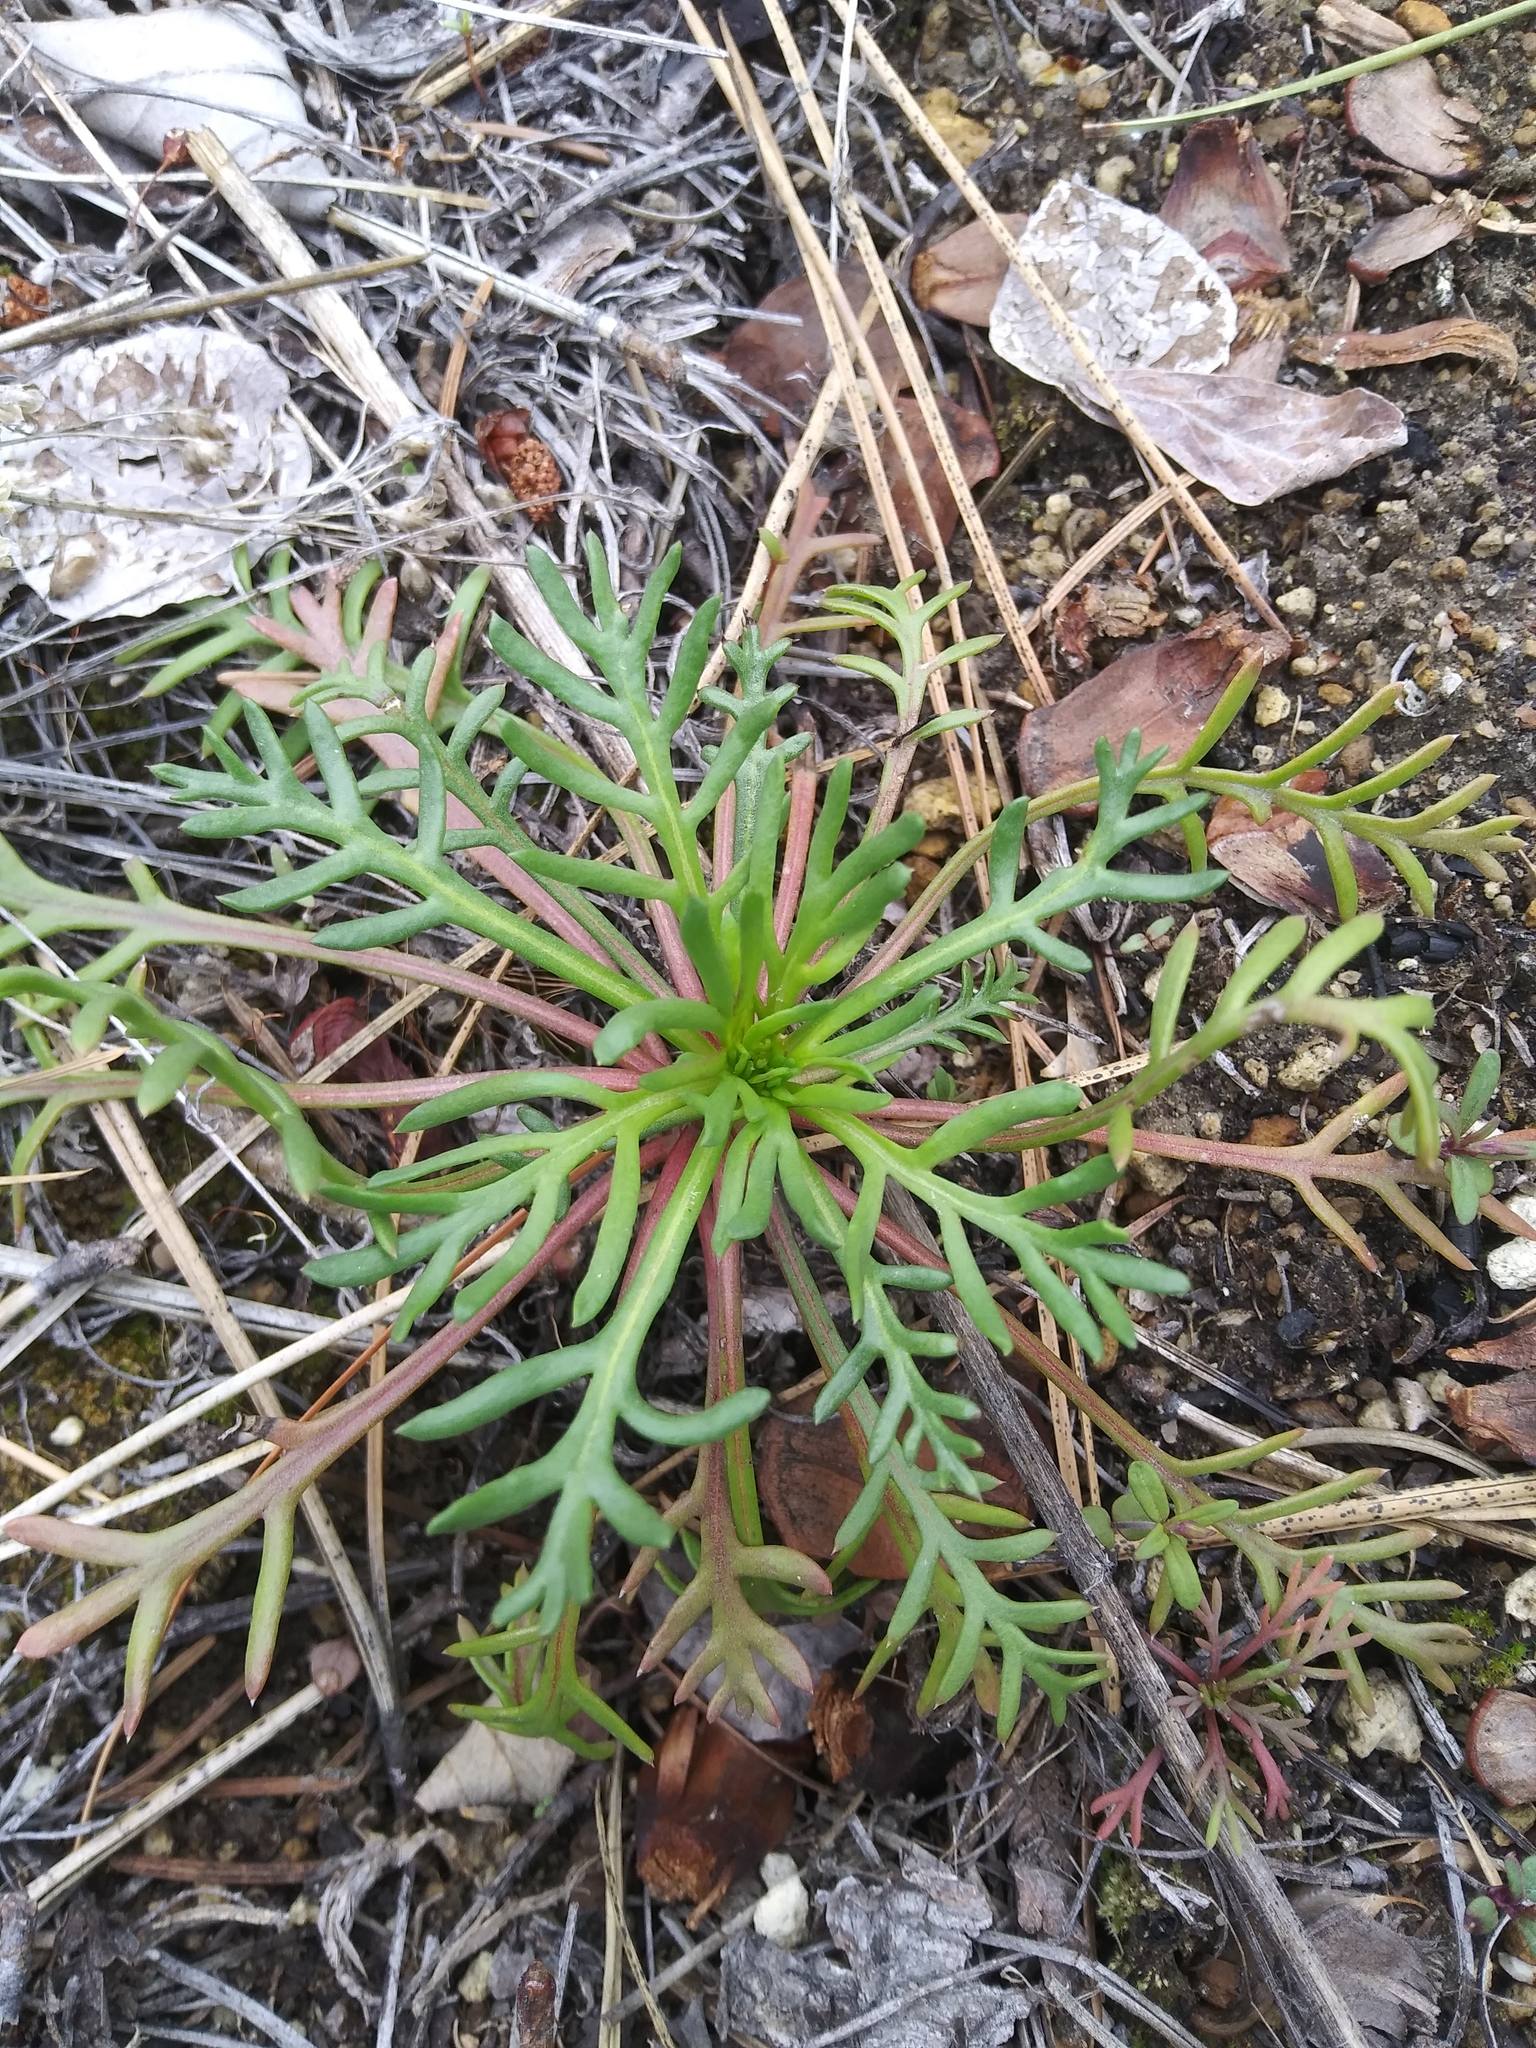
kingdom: Plantae
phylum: Tracheophyta
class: Magnoliopsida
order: Ericales
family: Polemoniaceae
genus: Ipomopsis
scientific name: Ipomopsis aggregata
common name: Scarlet gilia
